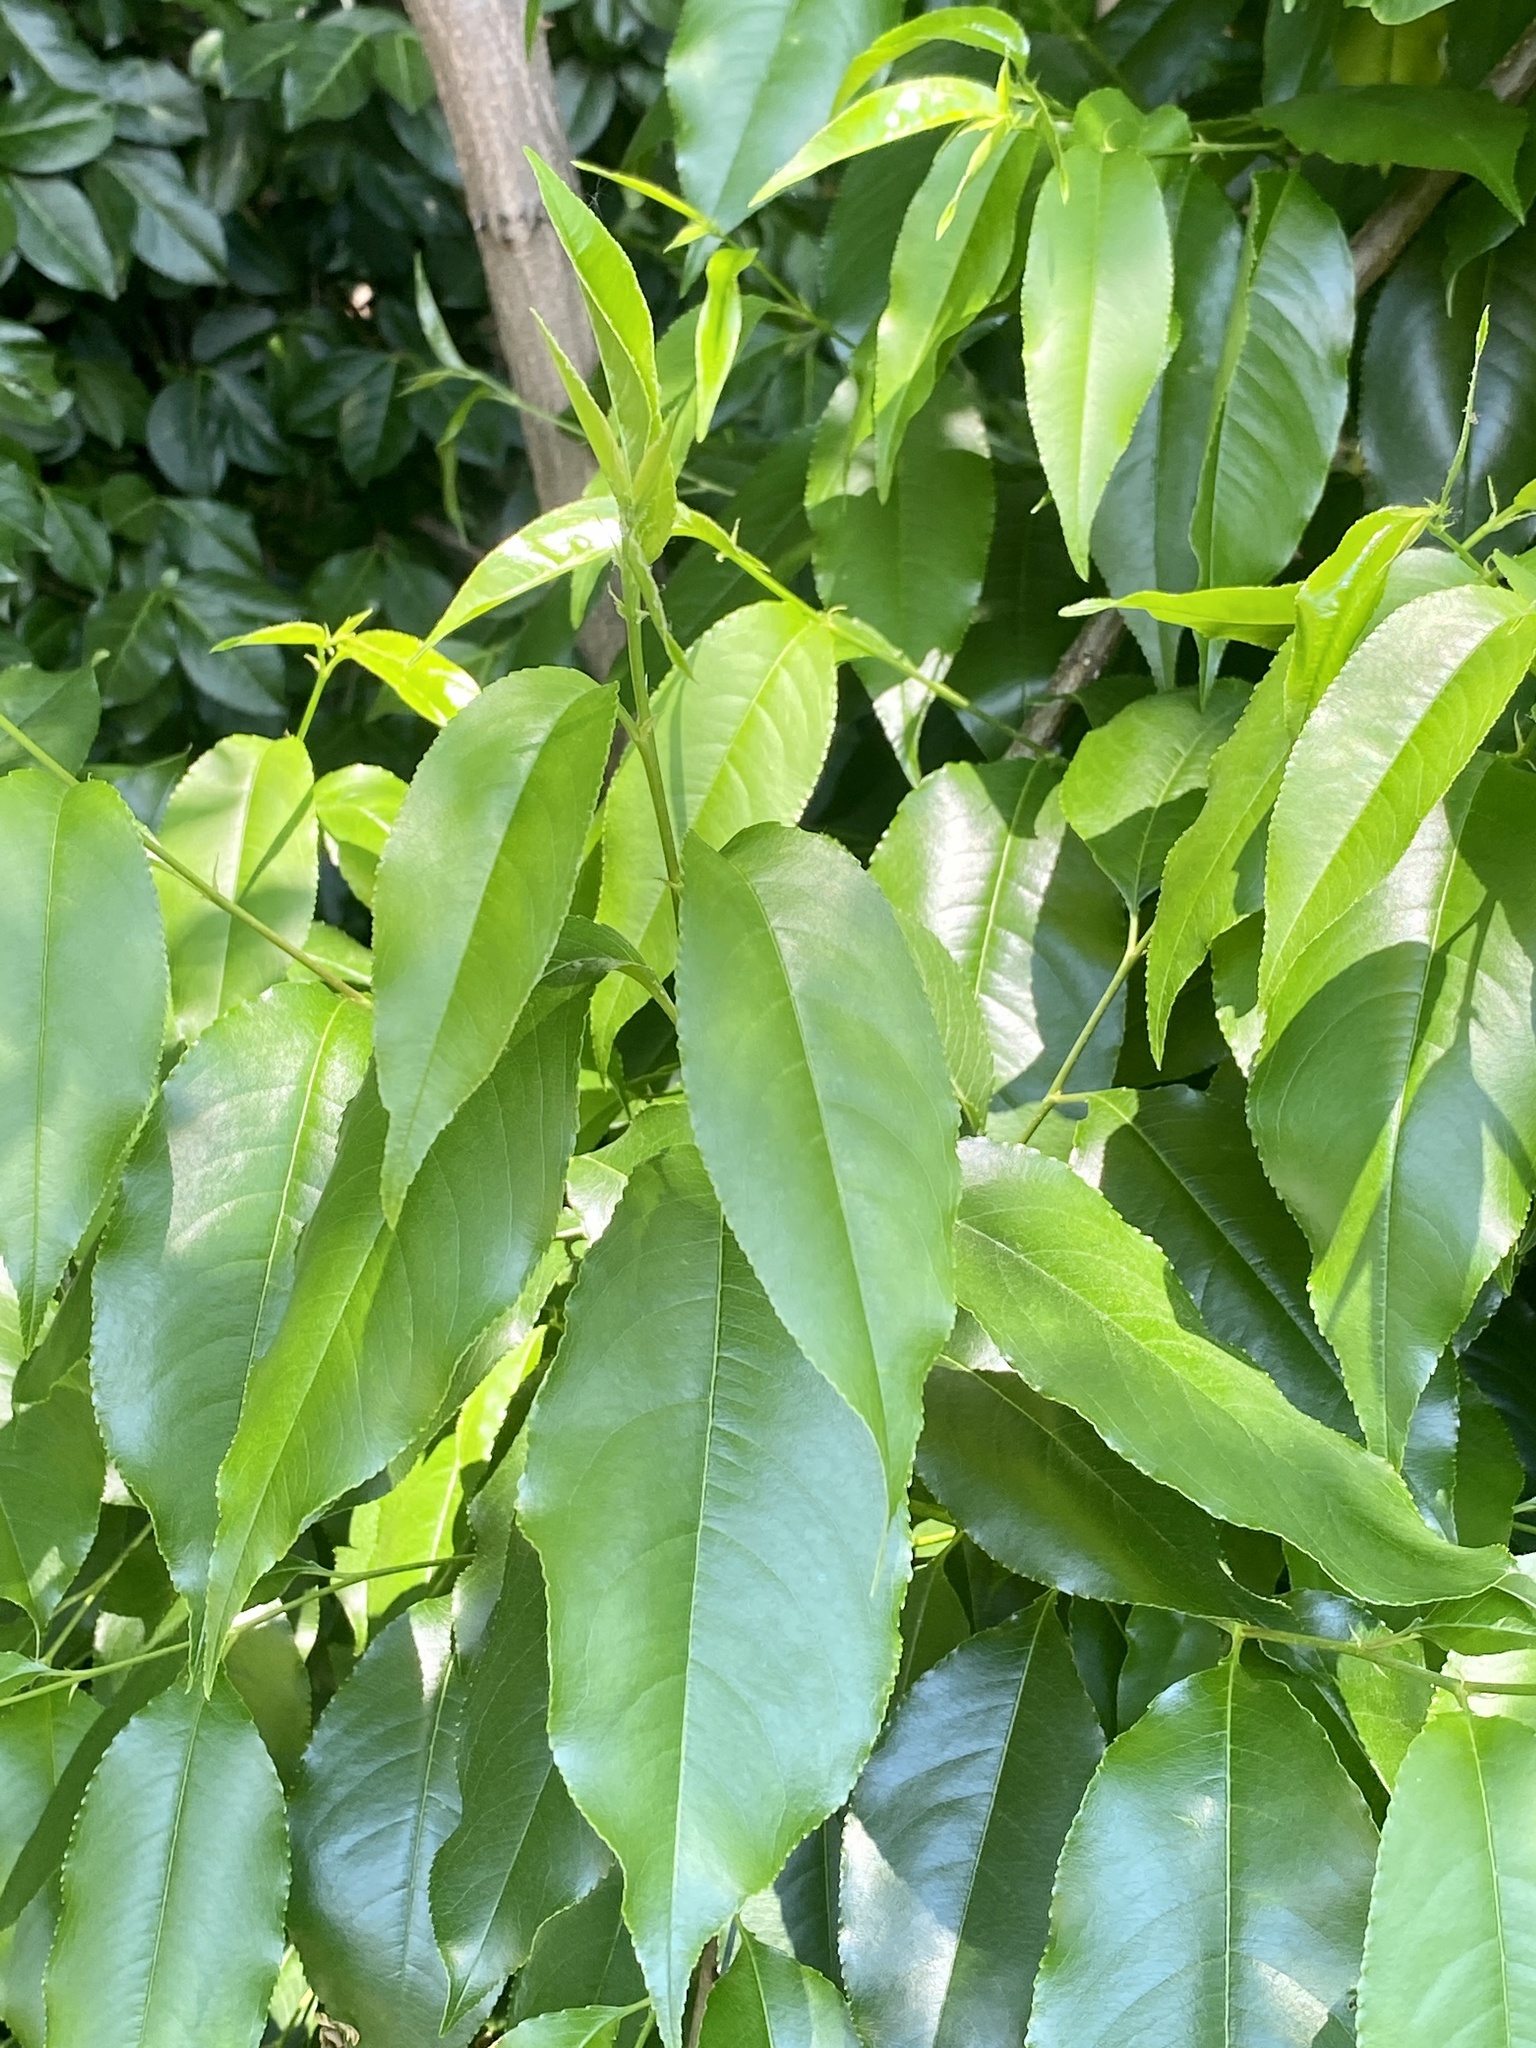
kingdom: Plantae
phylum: Tracheophyta
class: Magnoliopsida
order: Rosales
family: Rosaceae
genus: Prunus
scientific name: Prunus serotina
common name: Black cherry
